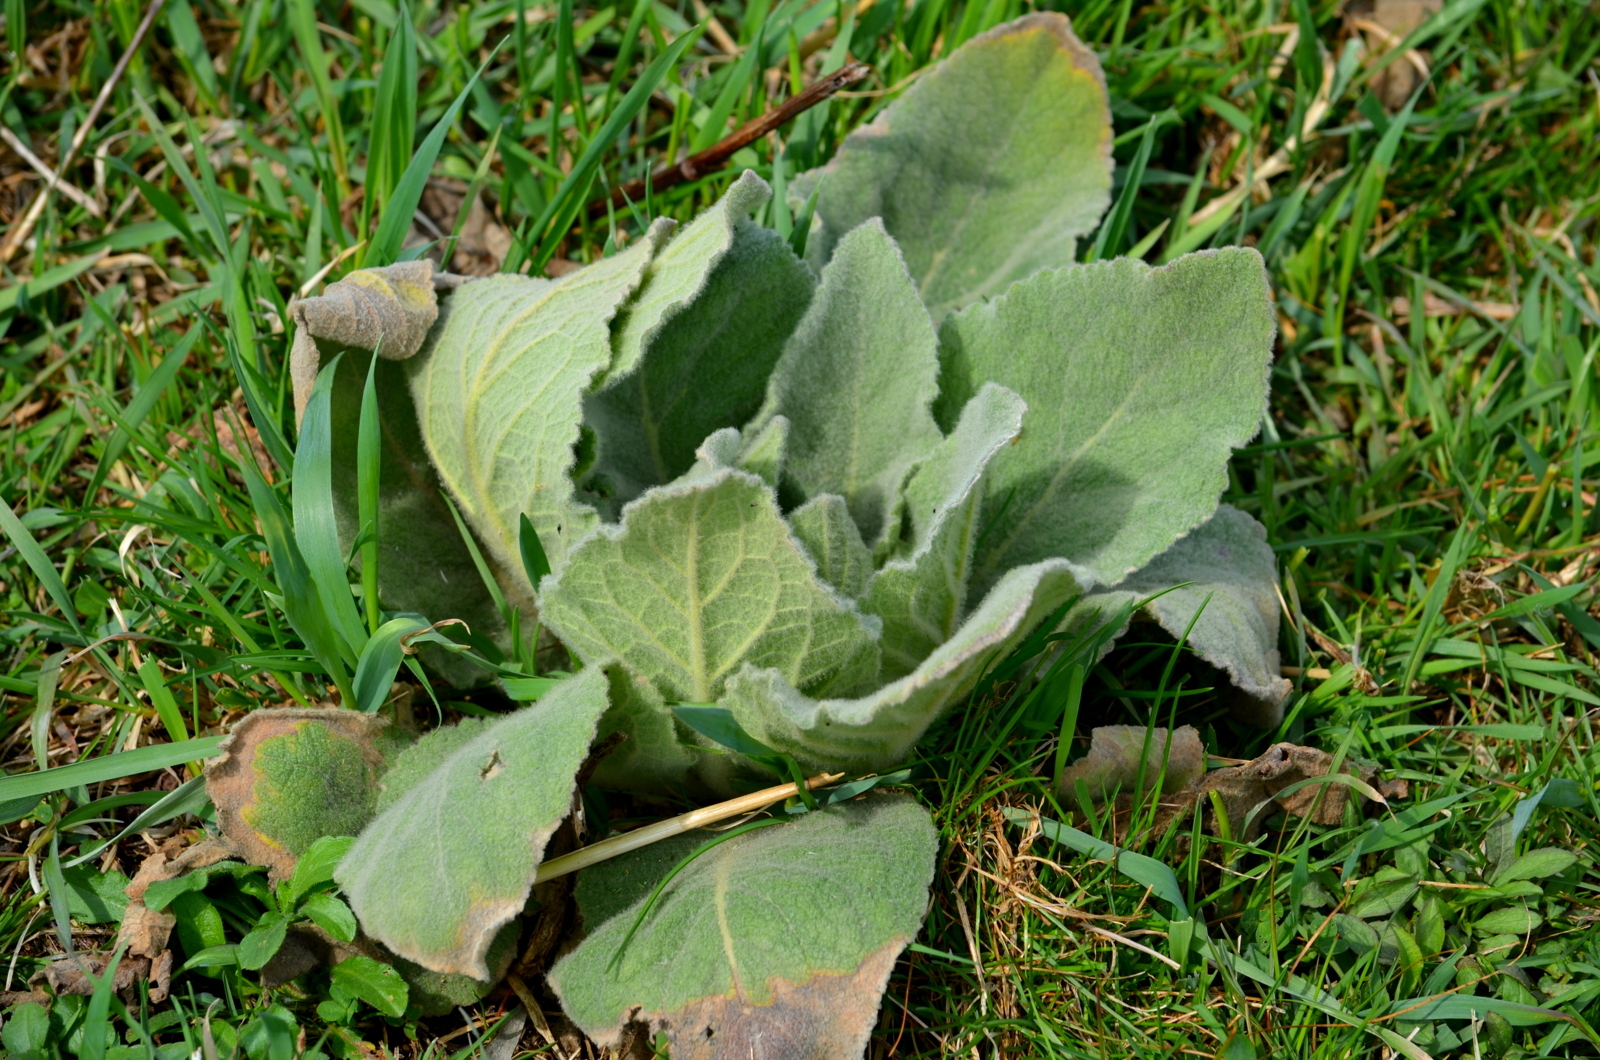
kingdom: Plantae
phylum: Tracheophyta
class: Magnoliopsida
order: Lamiales
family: Scrophulariaceae
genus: Verbascum
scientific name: Verbascum thapsus
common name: Common mullein
